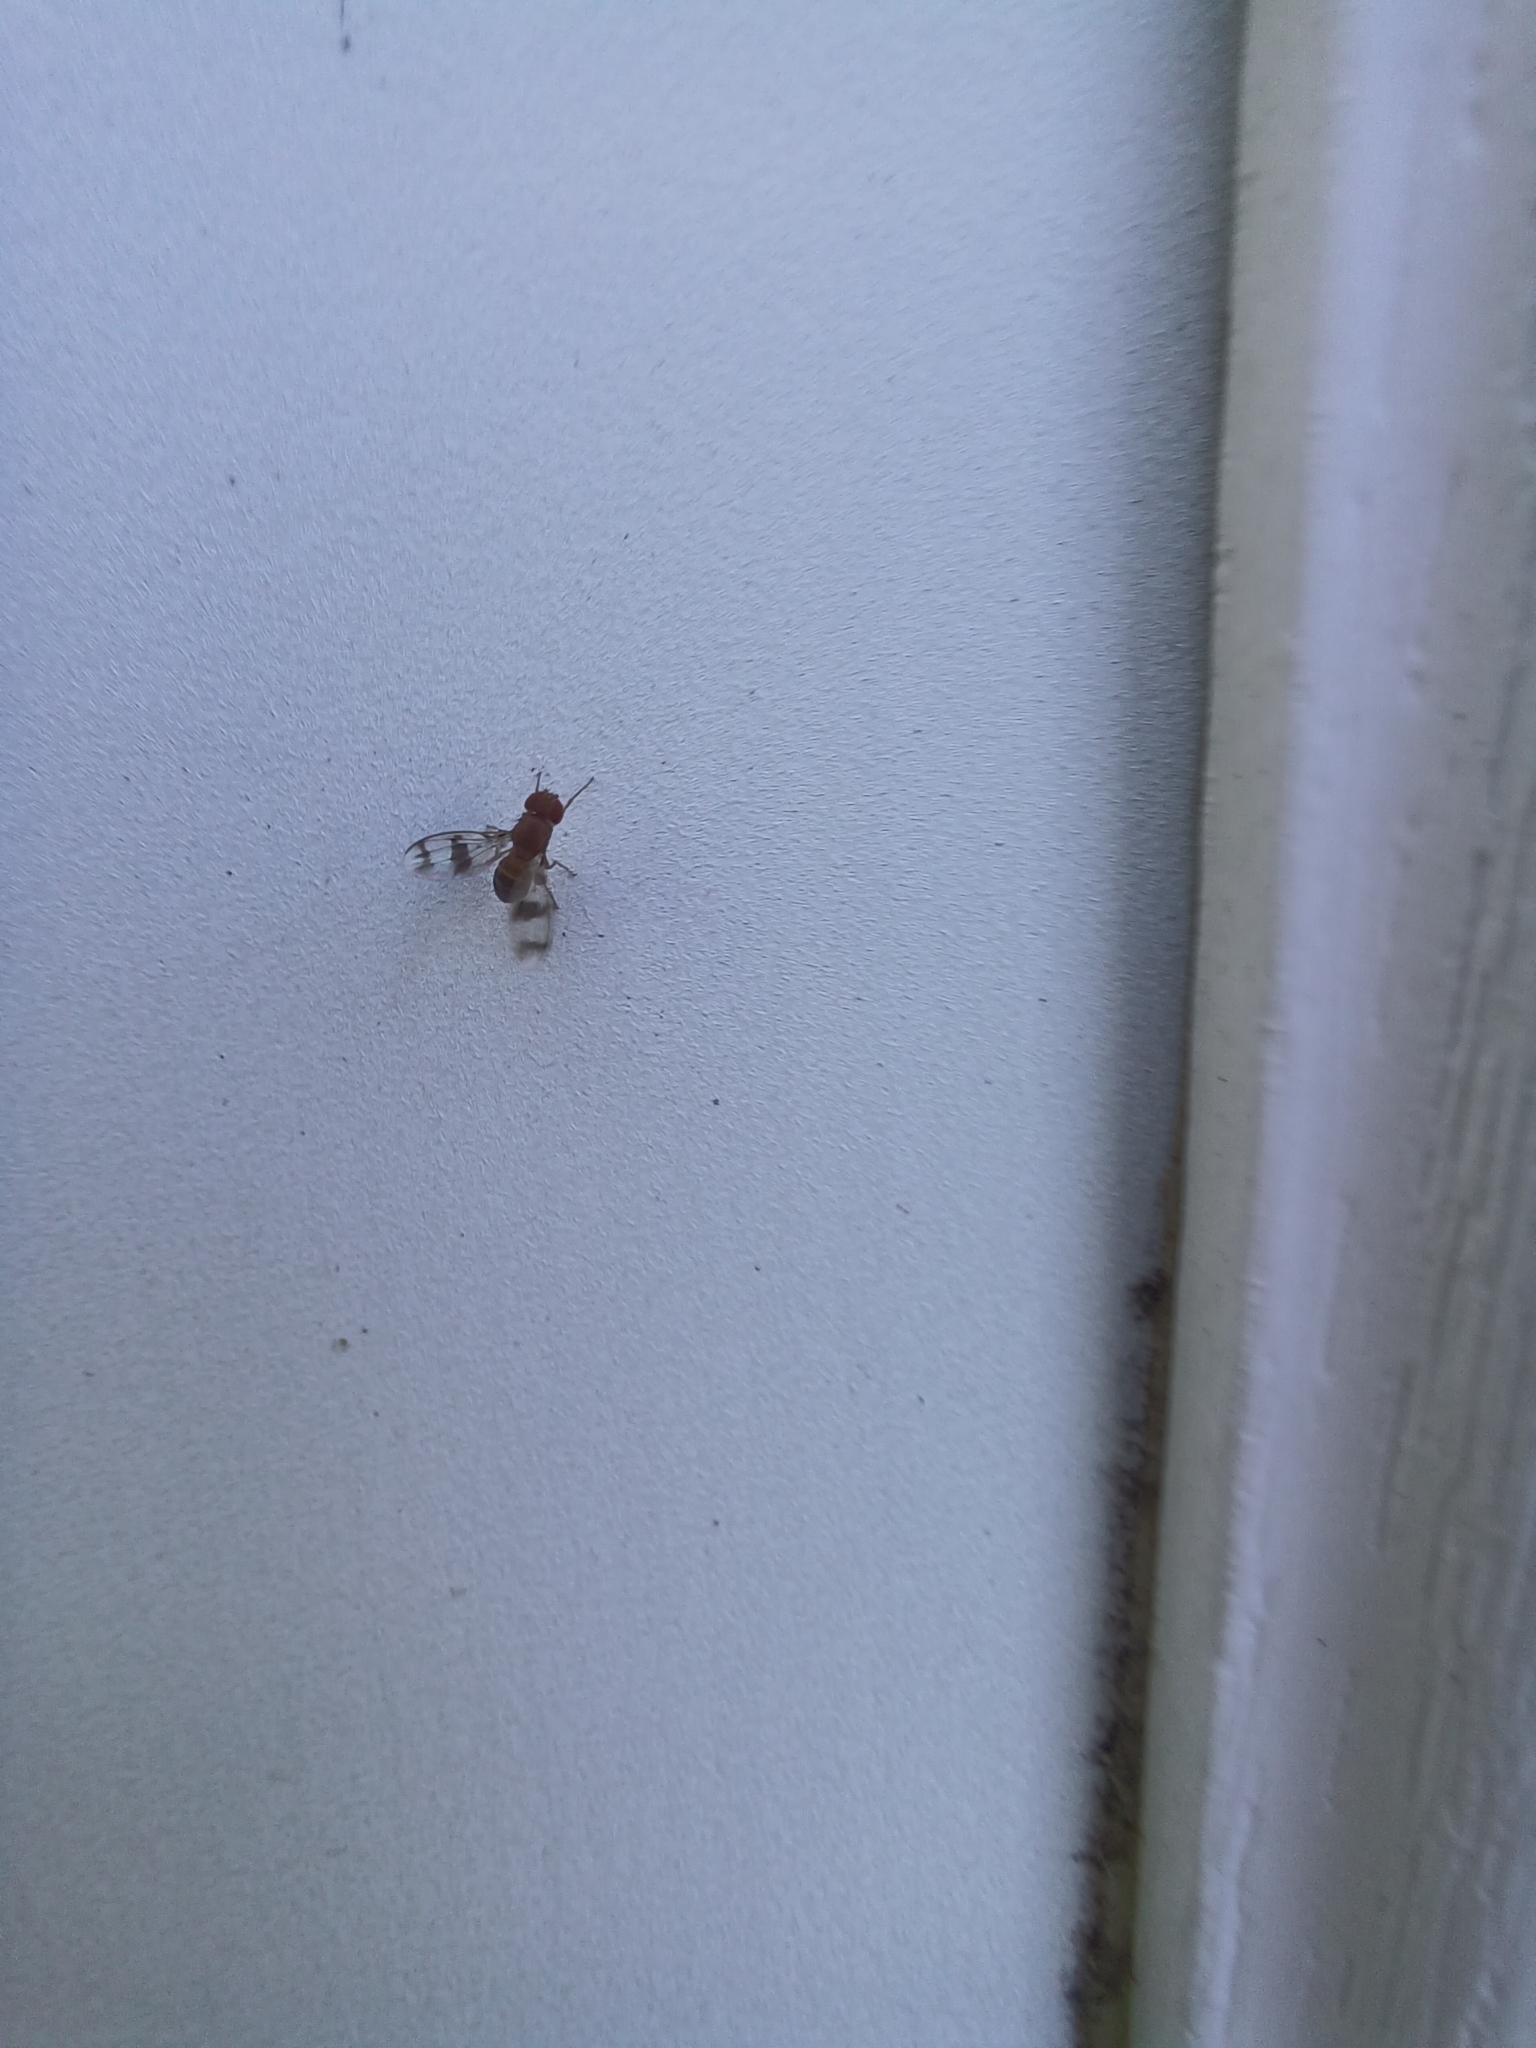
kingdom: Animalia
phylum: Arthropoda
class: Insecta
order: Diptera
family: Drosophilidae
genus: Chymomyza
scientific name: Chymomyza amoena
